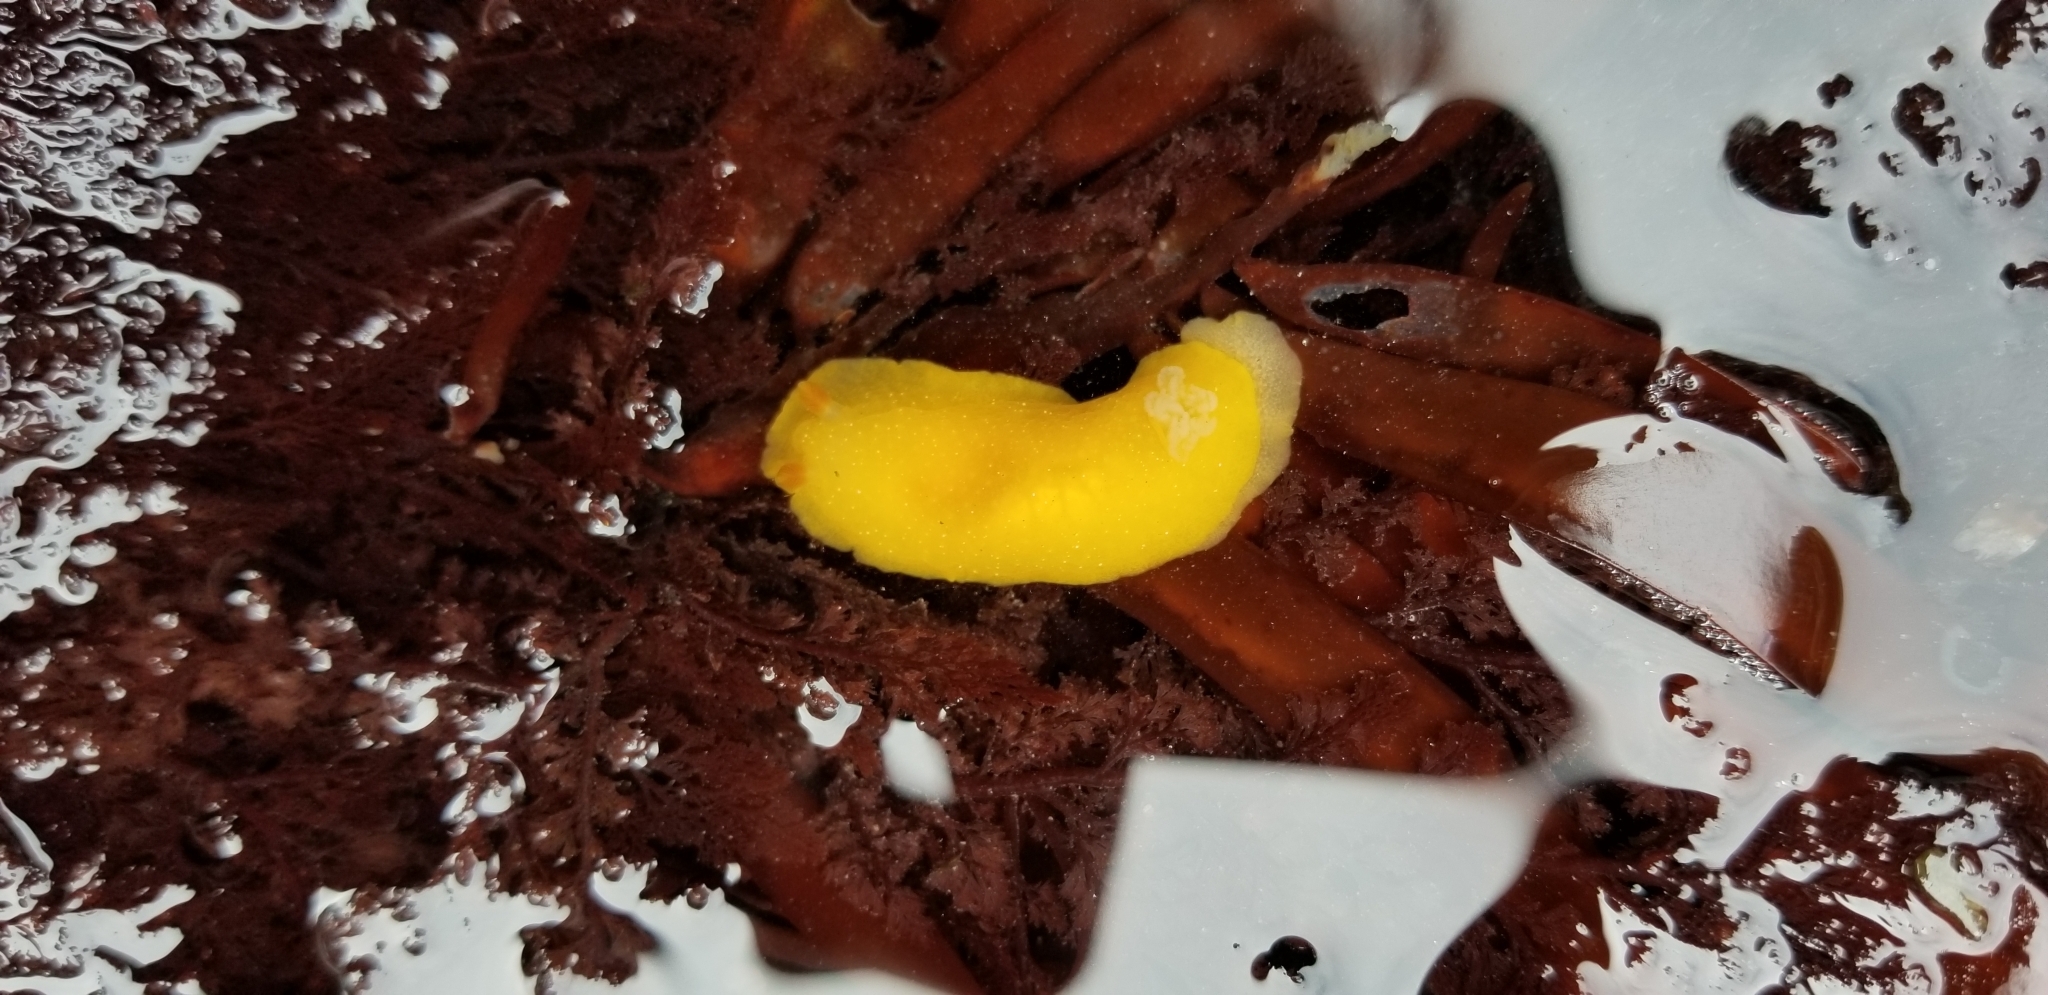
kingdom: Animalia
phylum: Mollusca
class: Gastropoda
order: Nudibranchia
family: Dendrodorididae
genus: Doriopsilla
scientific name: Doriopsilla fulva
